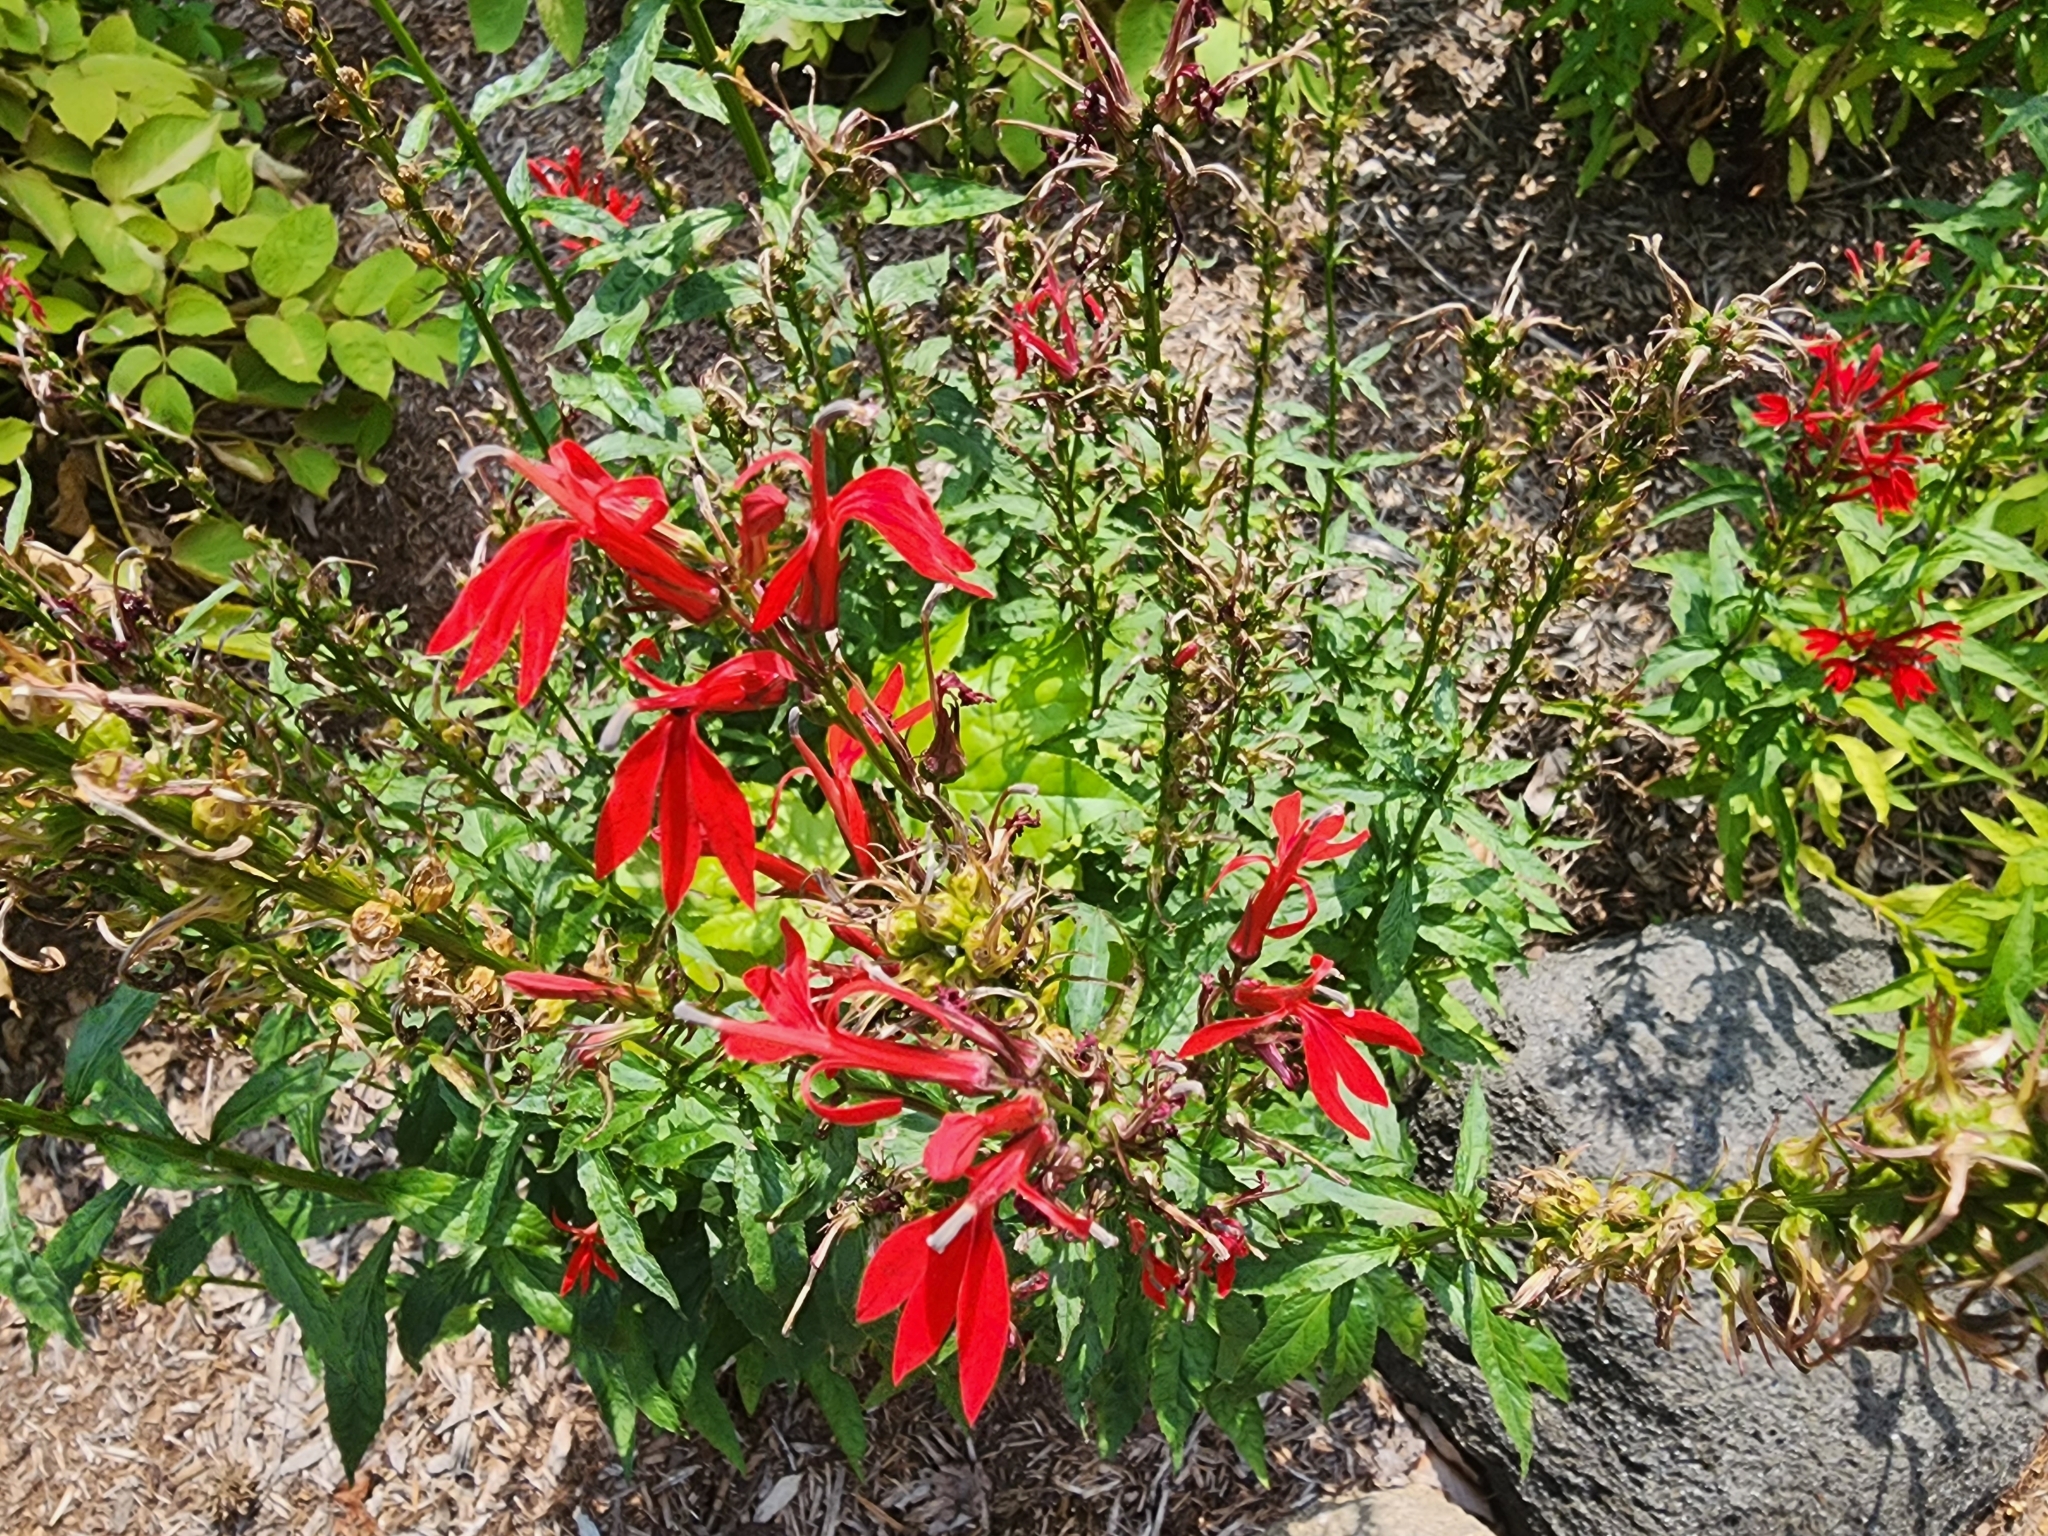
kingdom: Plantae
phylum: Tracheophyta
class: Magnoliopsida
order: Asterales
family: Campanulaceae
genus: Lobelia
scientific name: Lobelia cardinalis
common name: Cardinal flower
